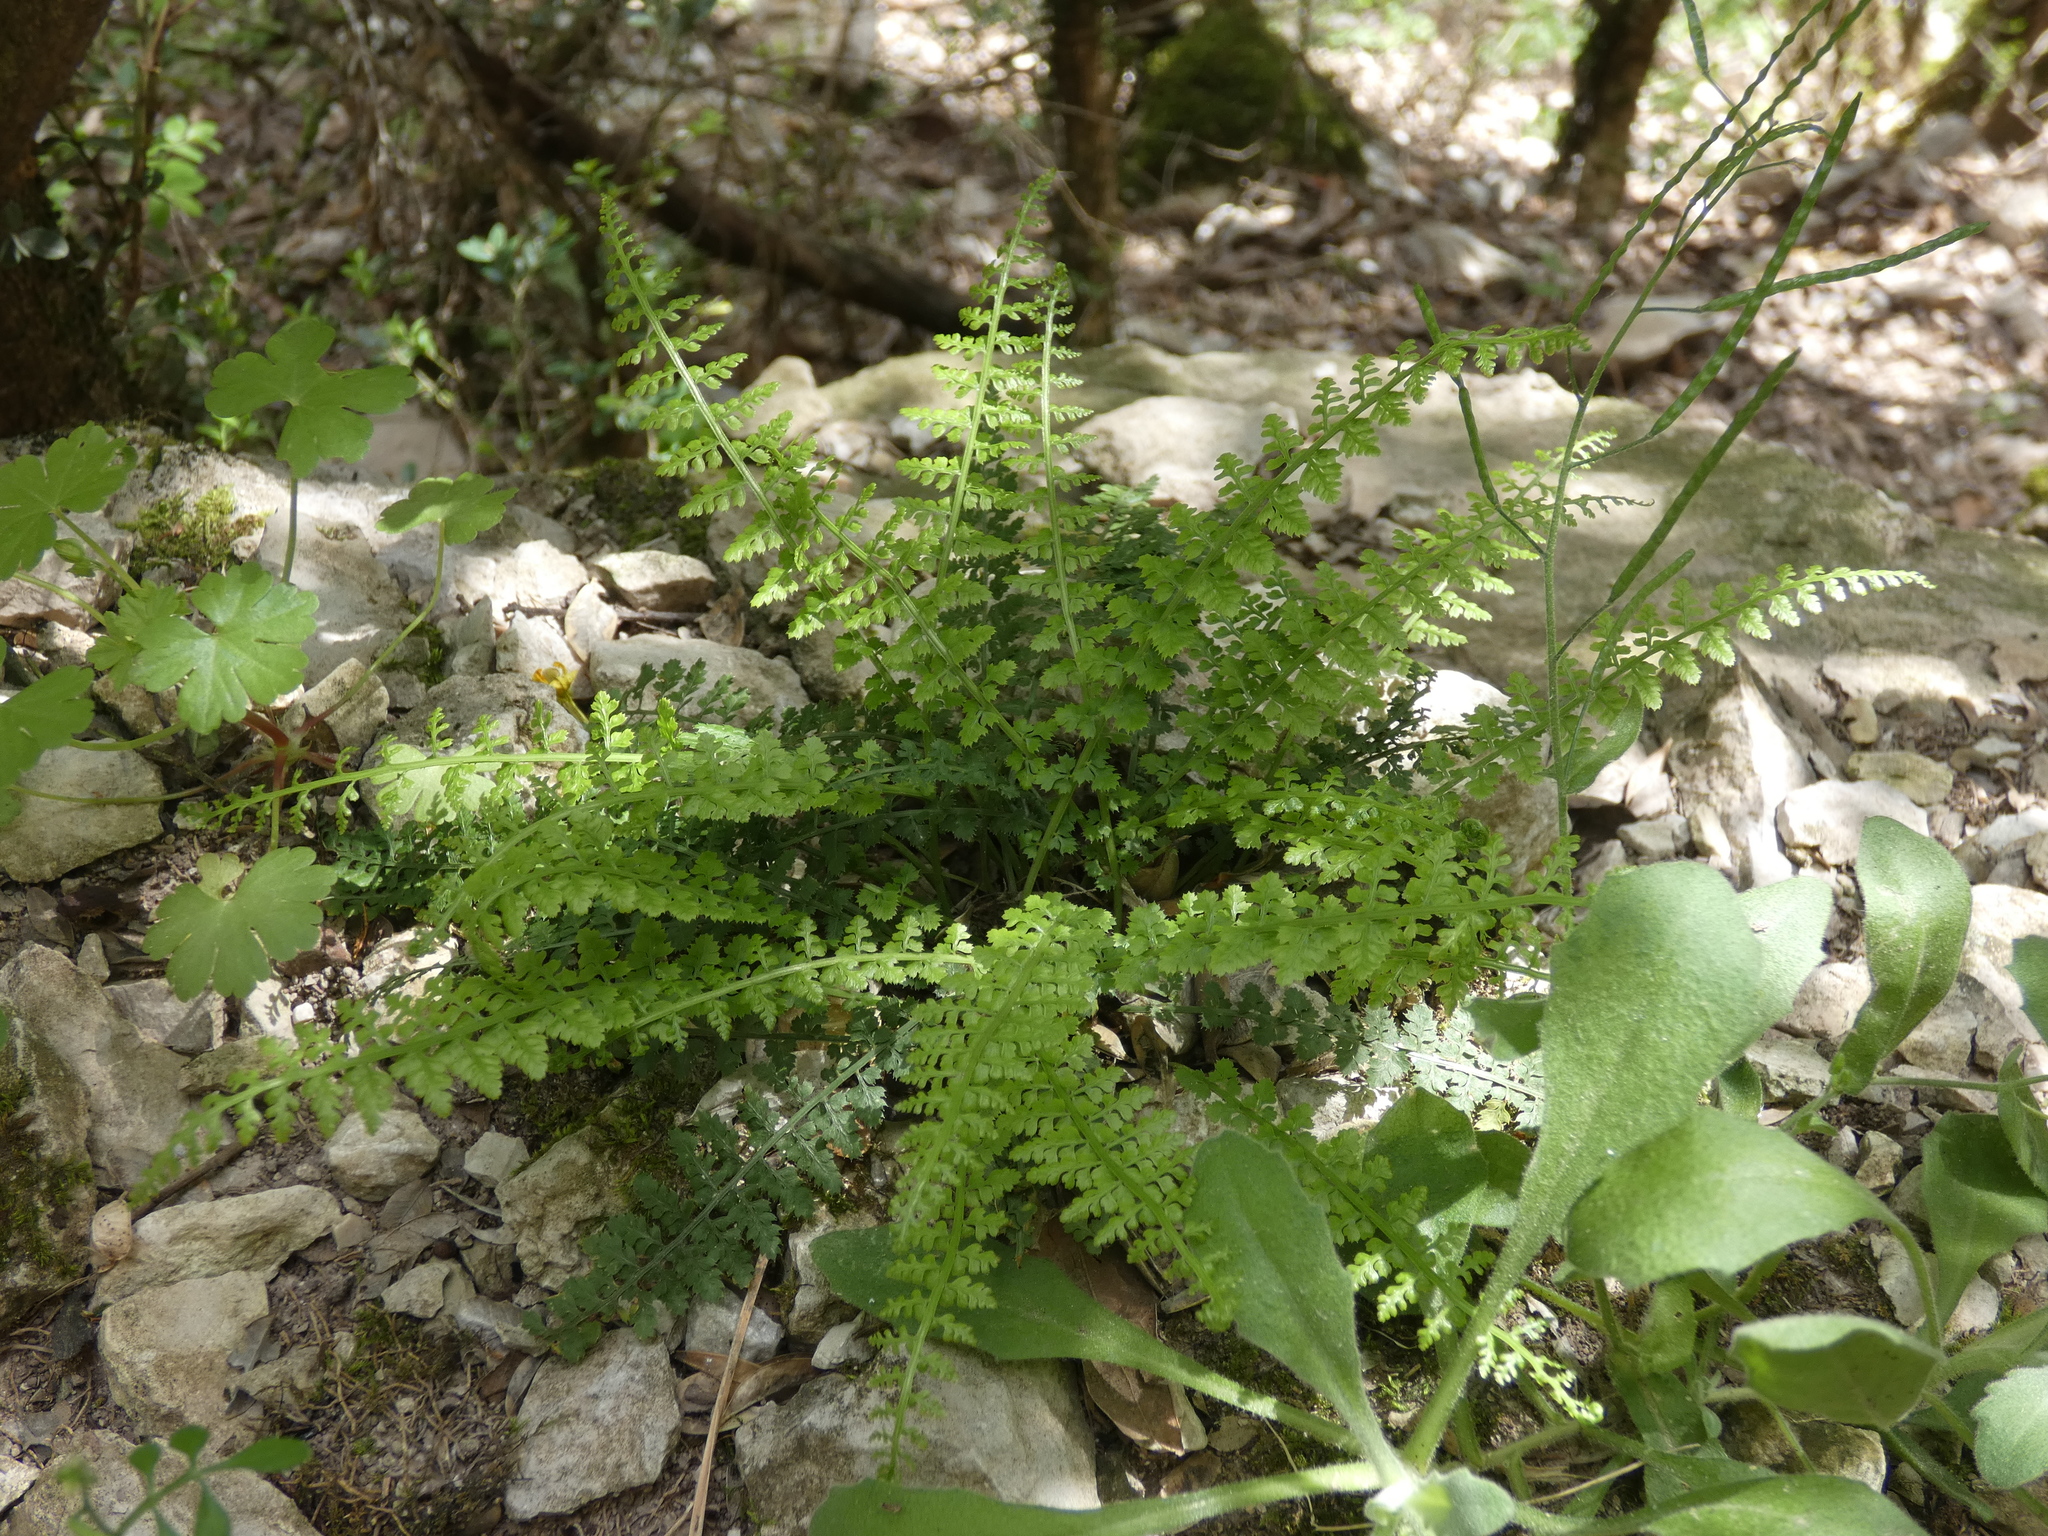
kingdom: Plantae
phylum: Tracheophyta
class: Polypodiopsida
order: Polypodiales
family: Aspleniaceae
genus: Asplenium
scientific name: Asplenium fontanum
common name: Fountain spleenwort
